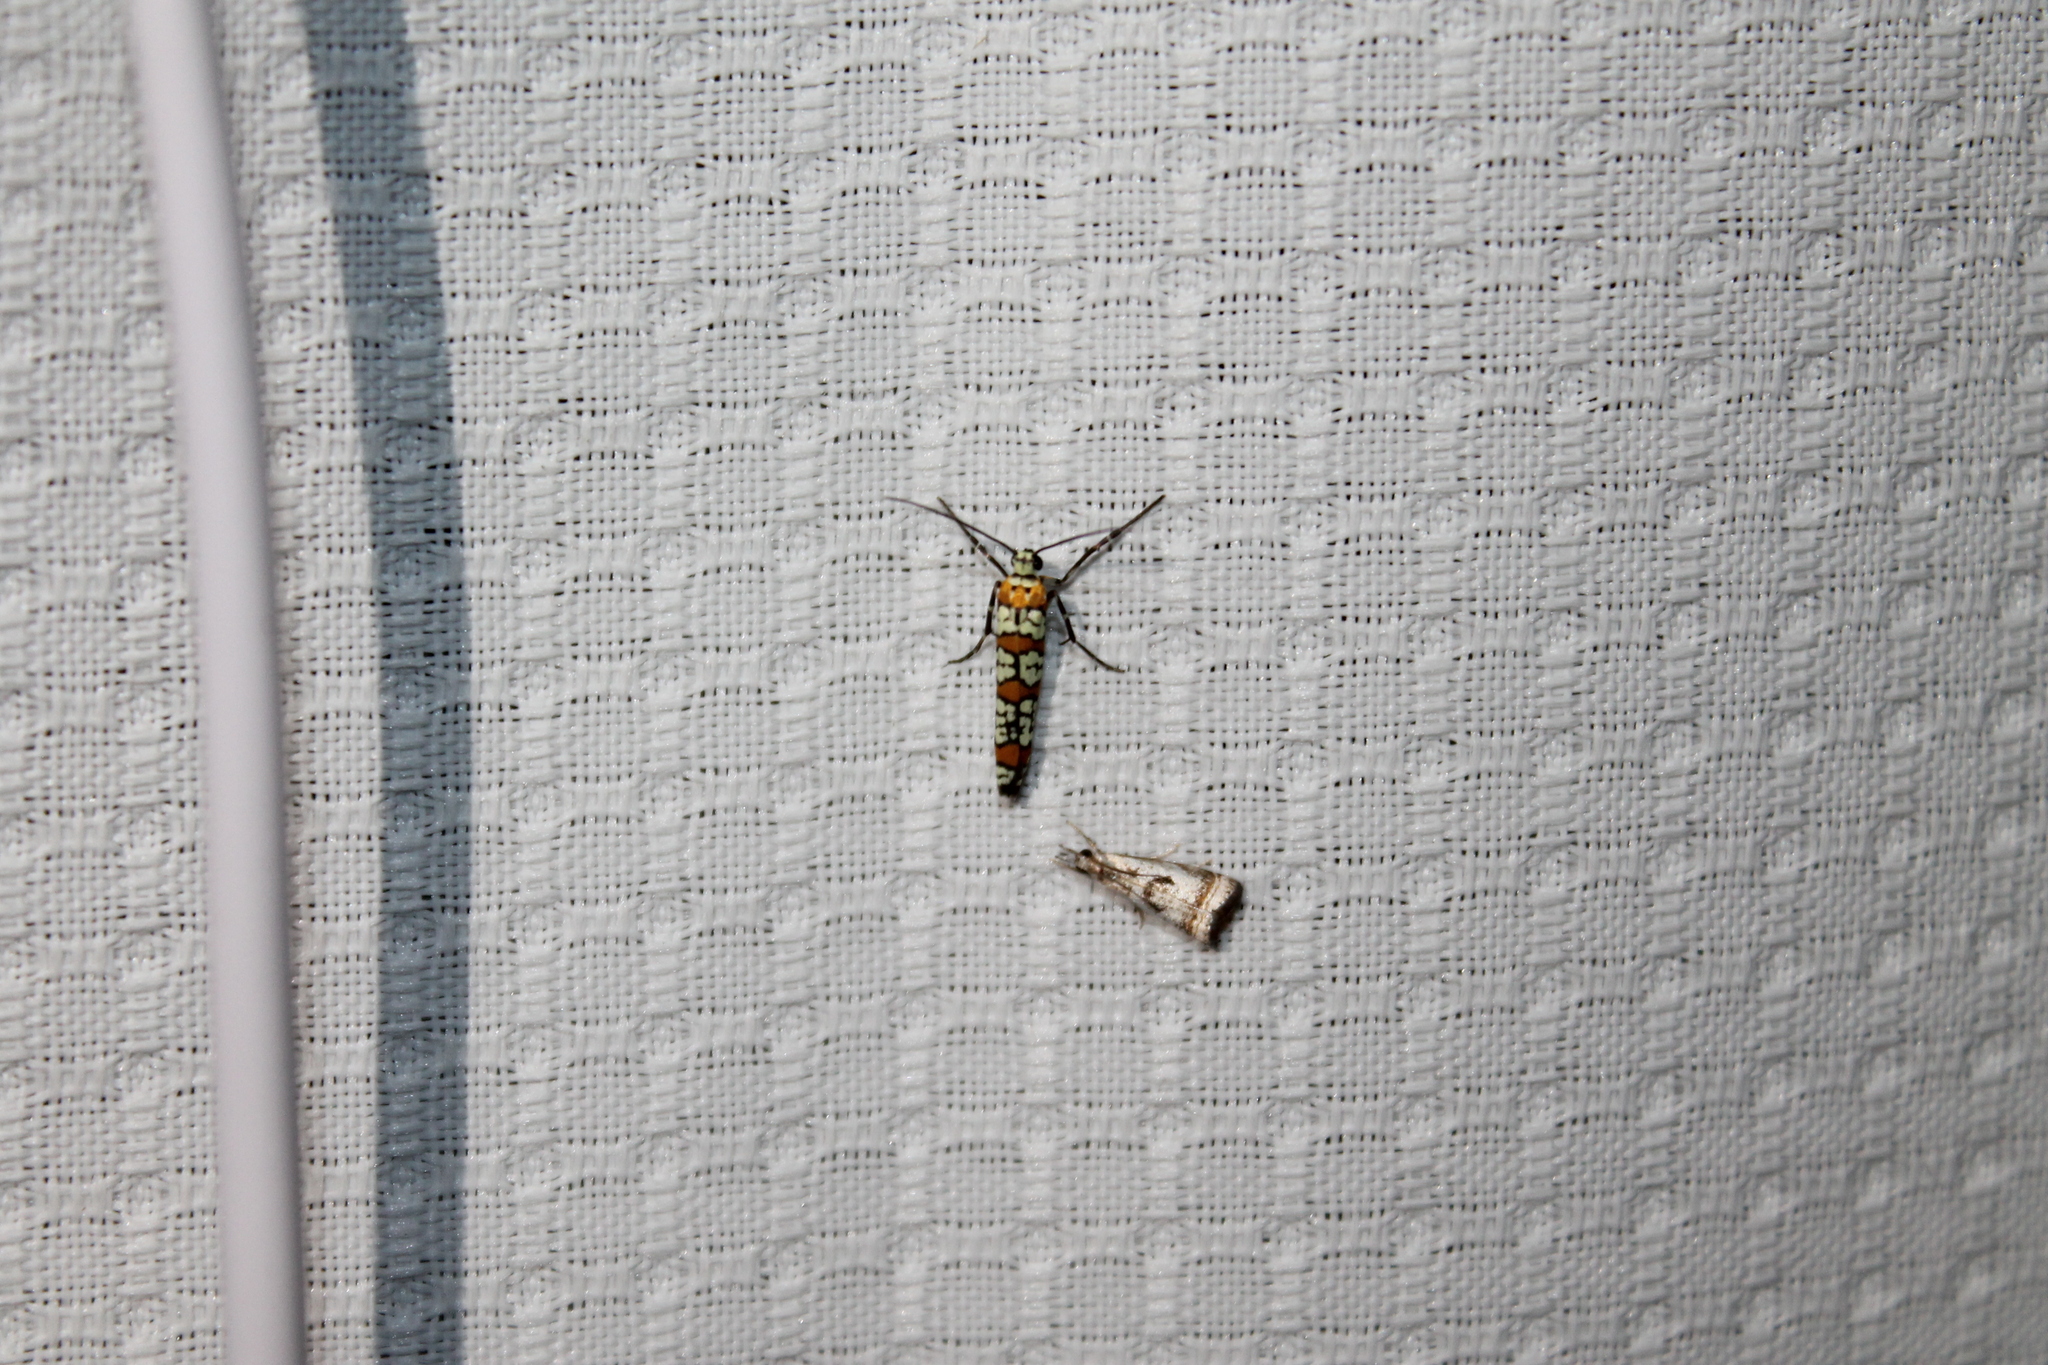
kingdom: Animalia
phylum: Arthropoda
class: Insecta
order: Lepidoptera
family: Attevidae
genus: Atteva
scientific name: Atteva punctella
